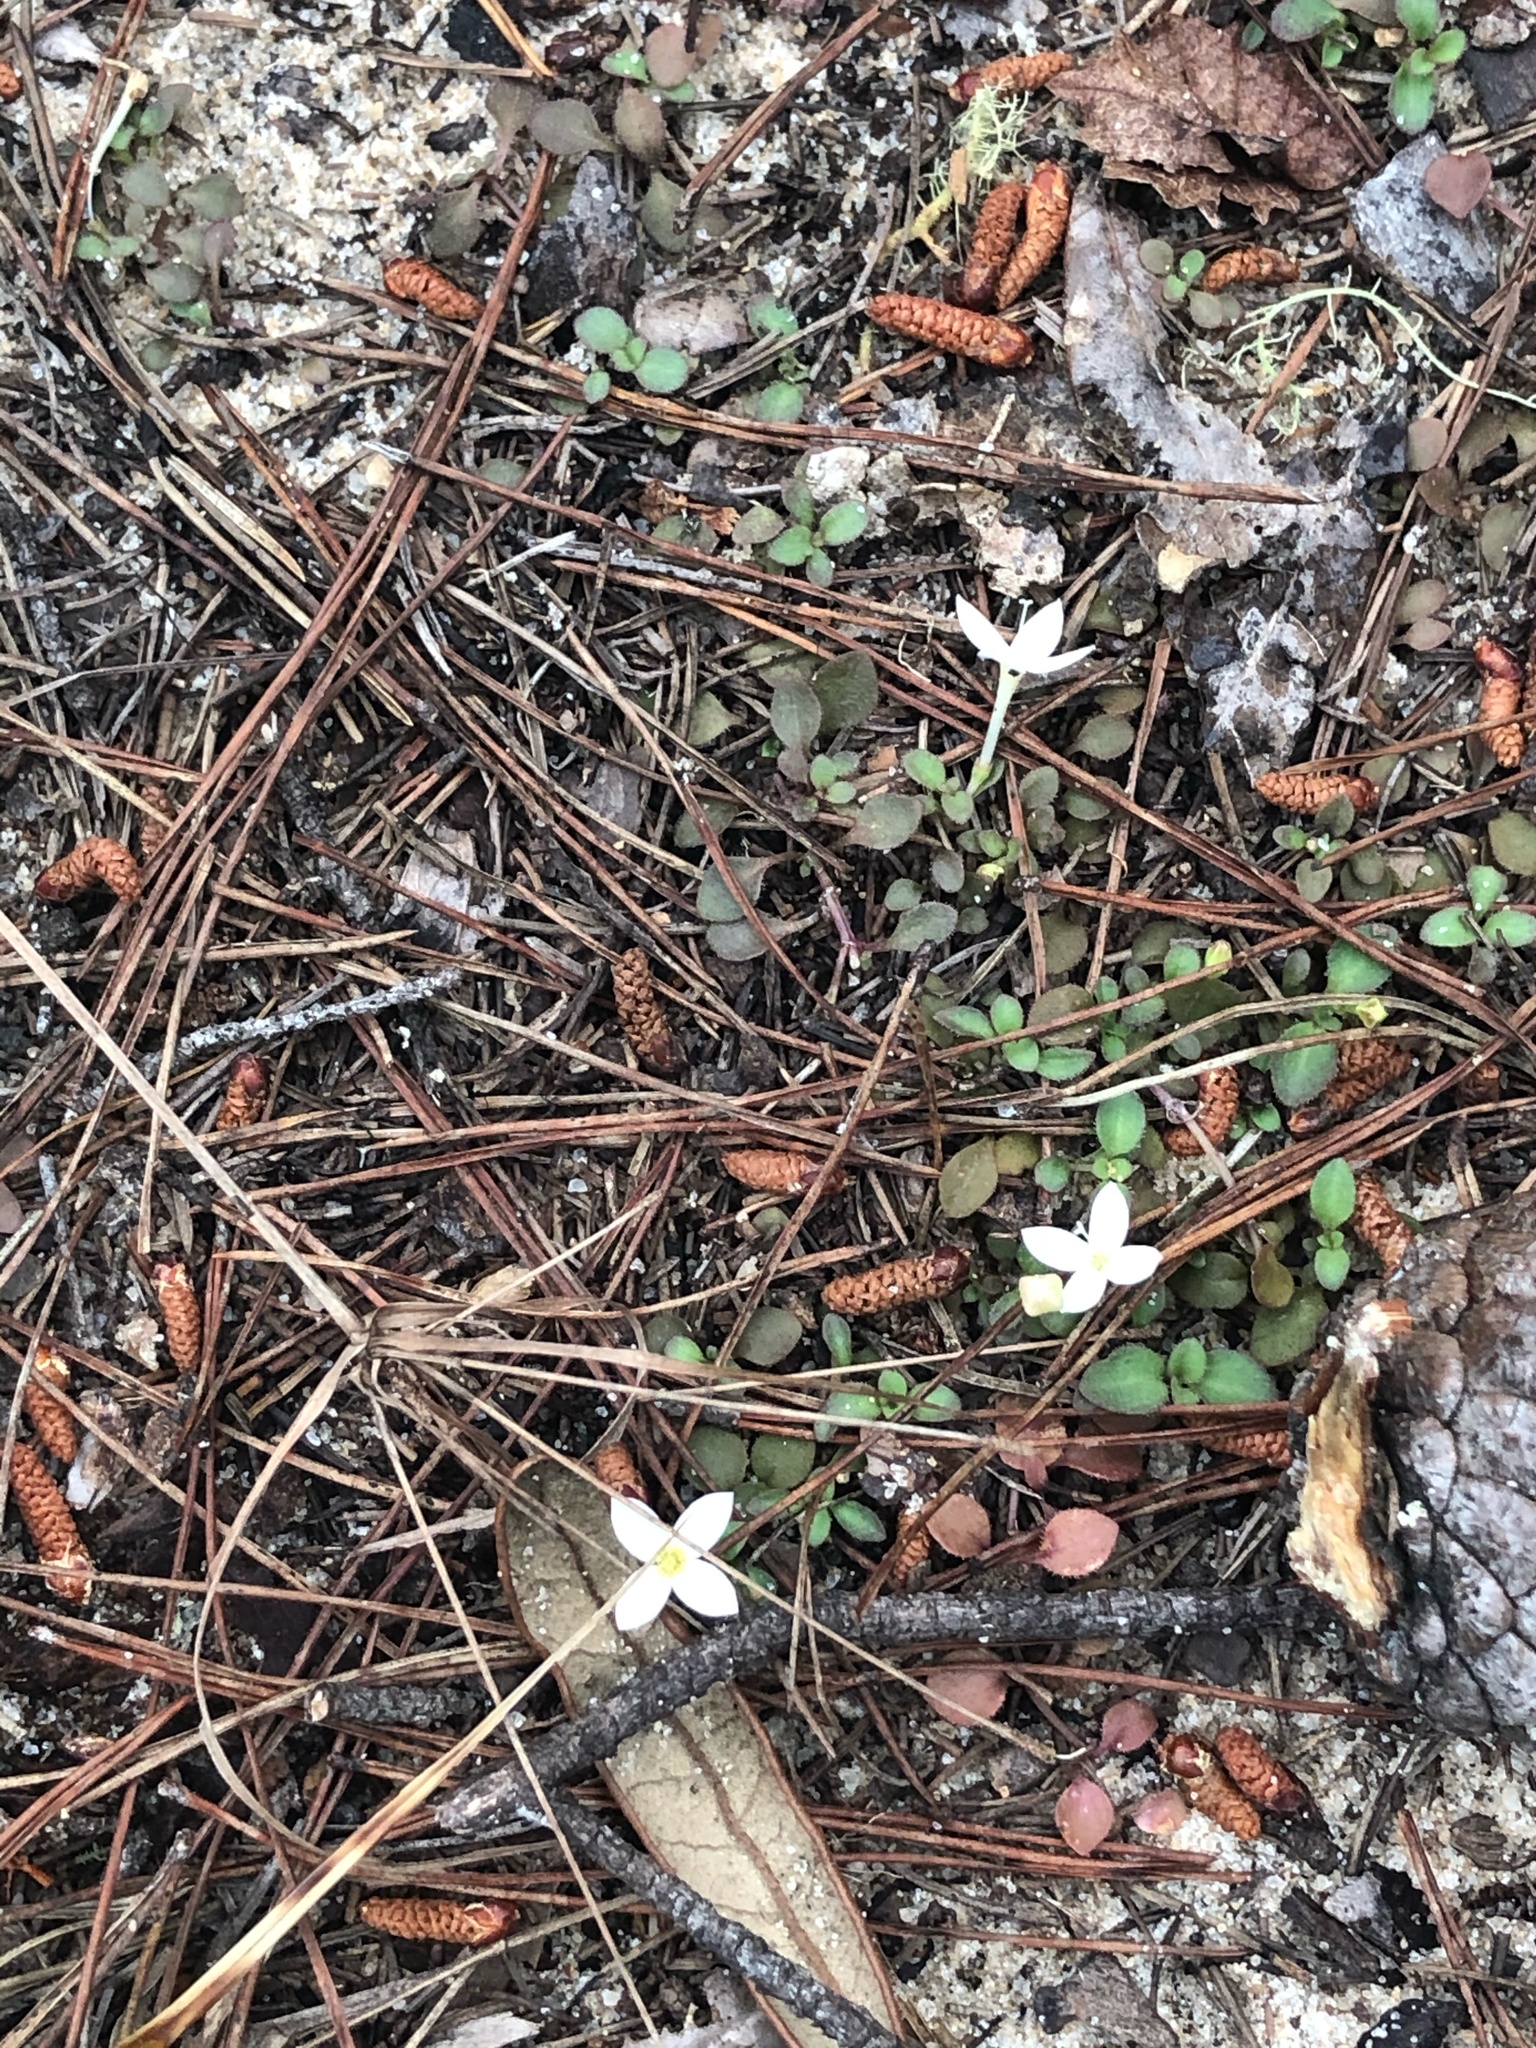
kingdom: Plantae
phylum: Tracheophyta
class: Magnoliopsida
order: Gentianales
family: Rubiaceae
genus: Houstonia
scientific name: Houstonia procumbens
